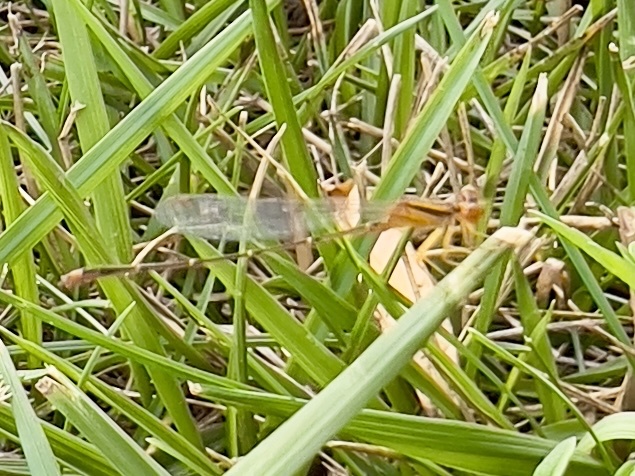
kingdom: Animalia
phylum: Arthropoda
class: Insecta
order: Odonata
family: Coenagrionidae
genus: Enallagma
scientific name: Enallagma signatum
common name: Orange bluet
